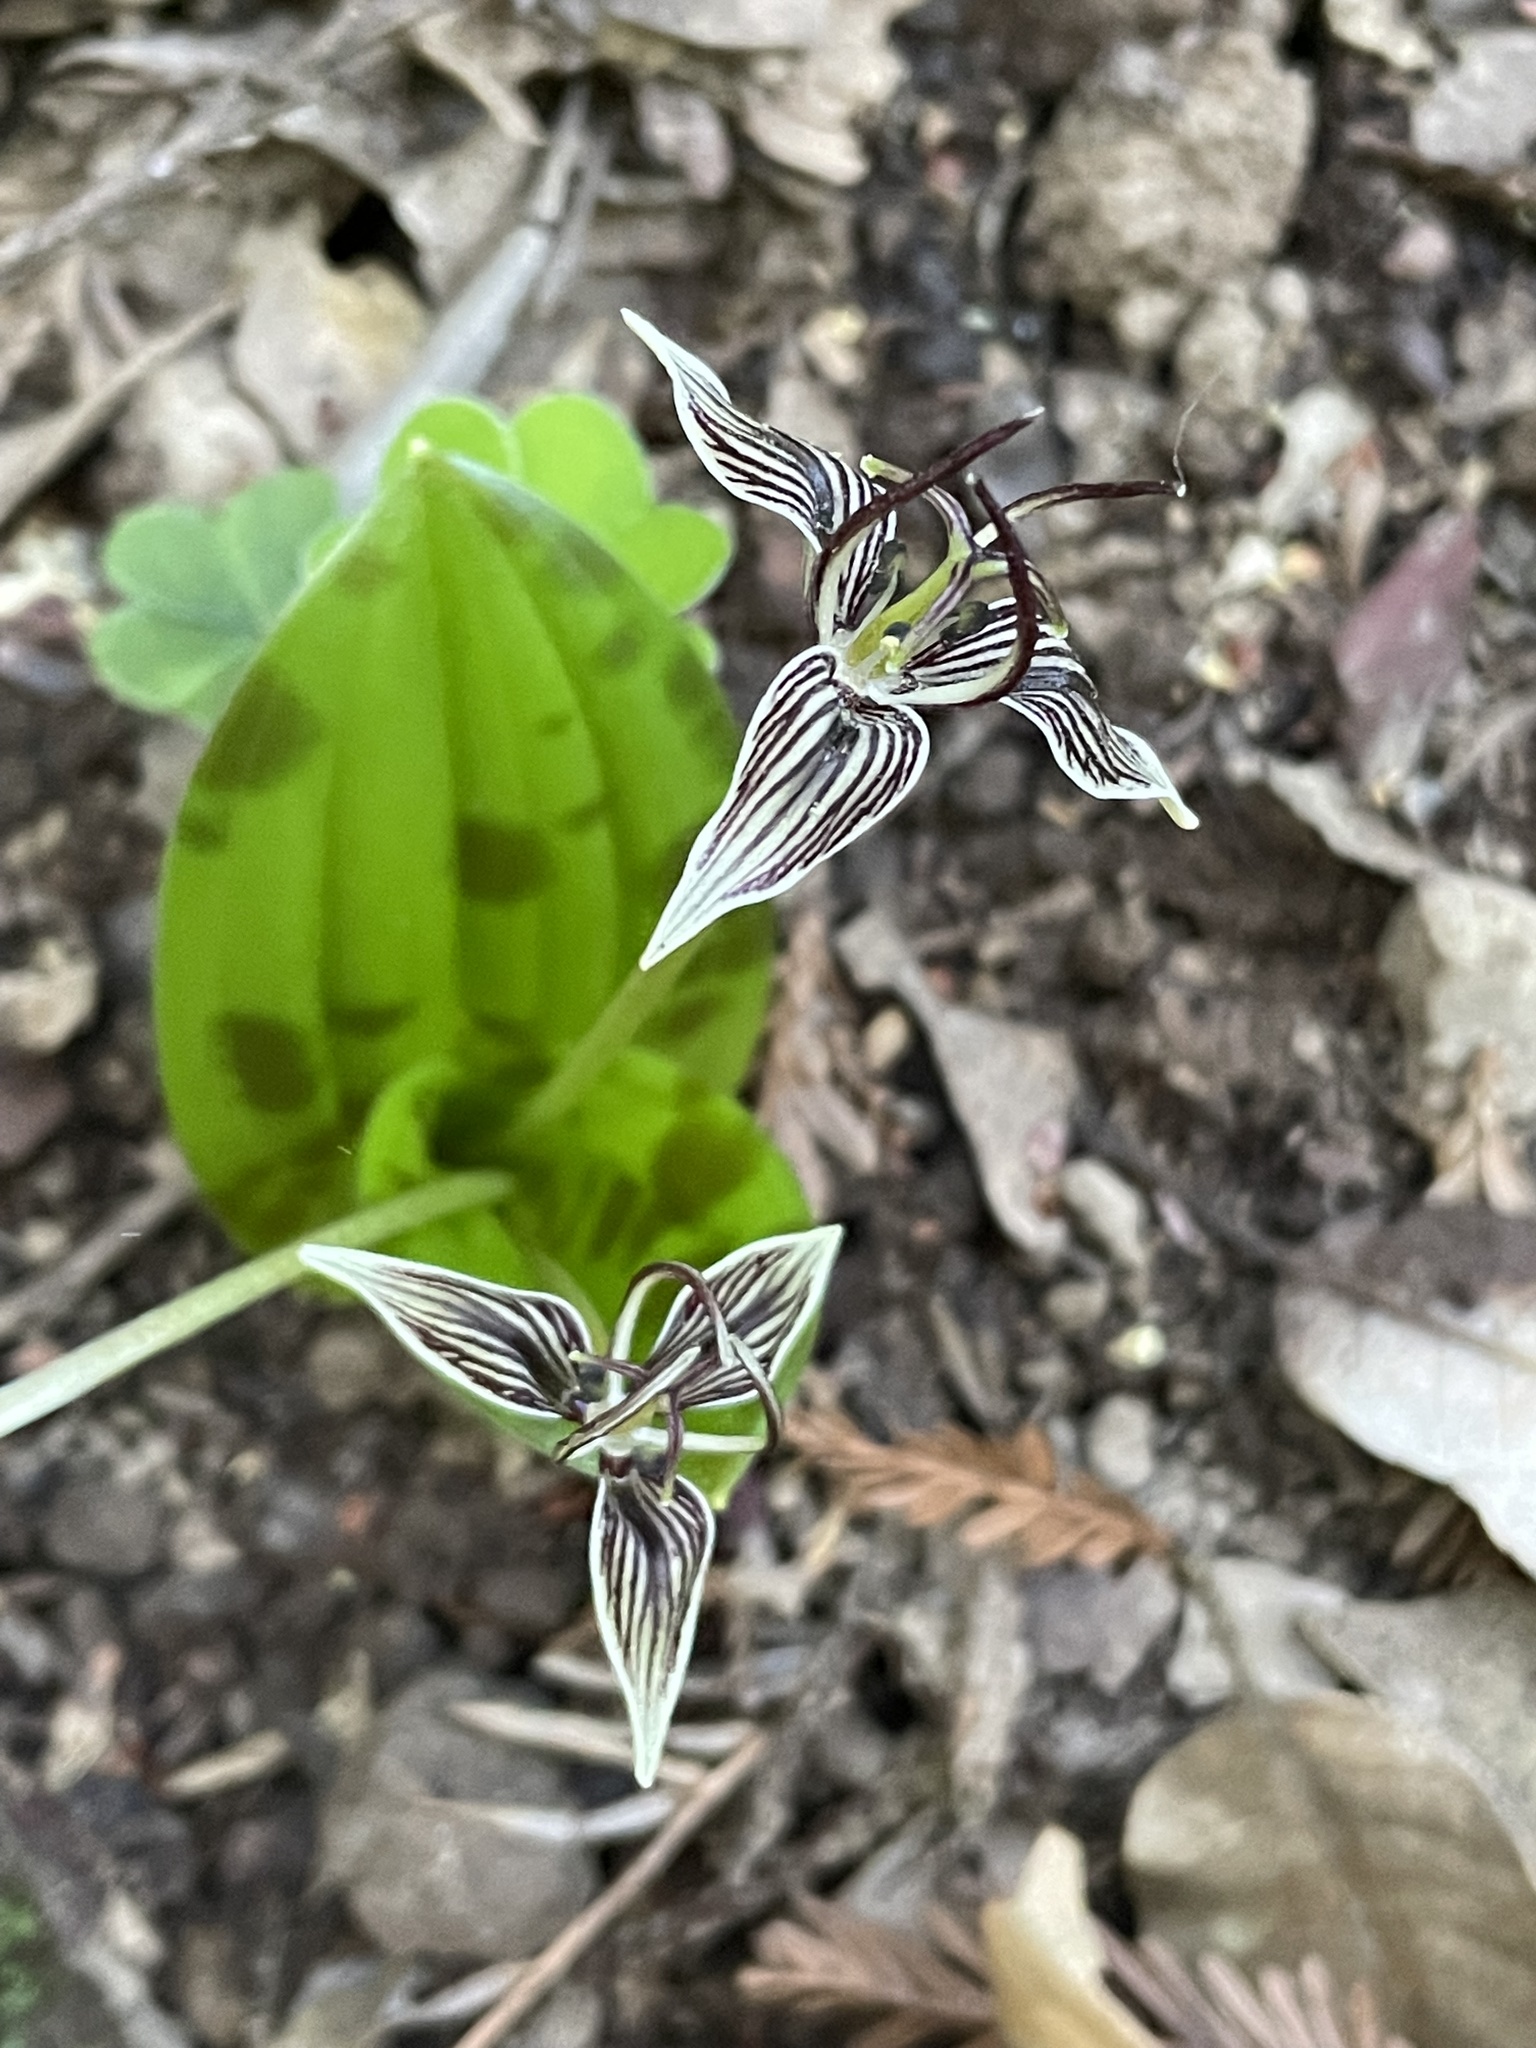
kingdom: Plantae
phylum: Tracheophyta
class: Liliopsida
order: Liliales
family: Liliaceae
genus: Scoliopus
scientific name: Scoliopus bigelovii
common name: Foetid adder's-tongue
